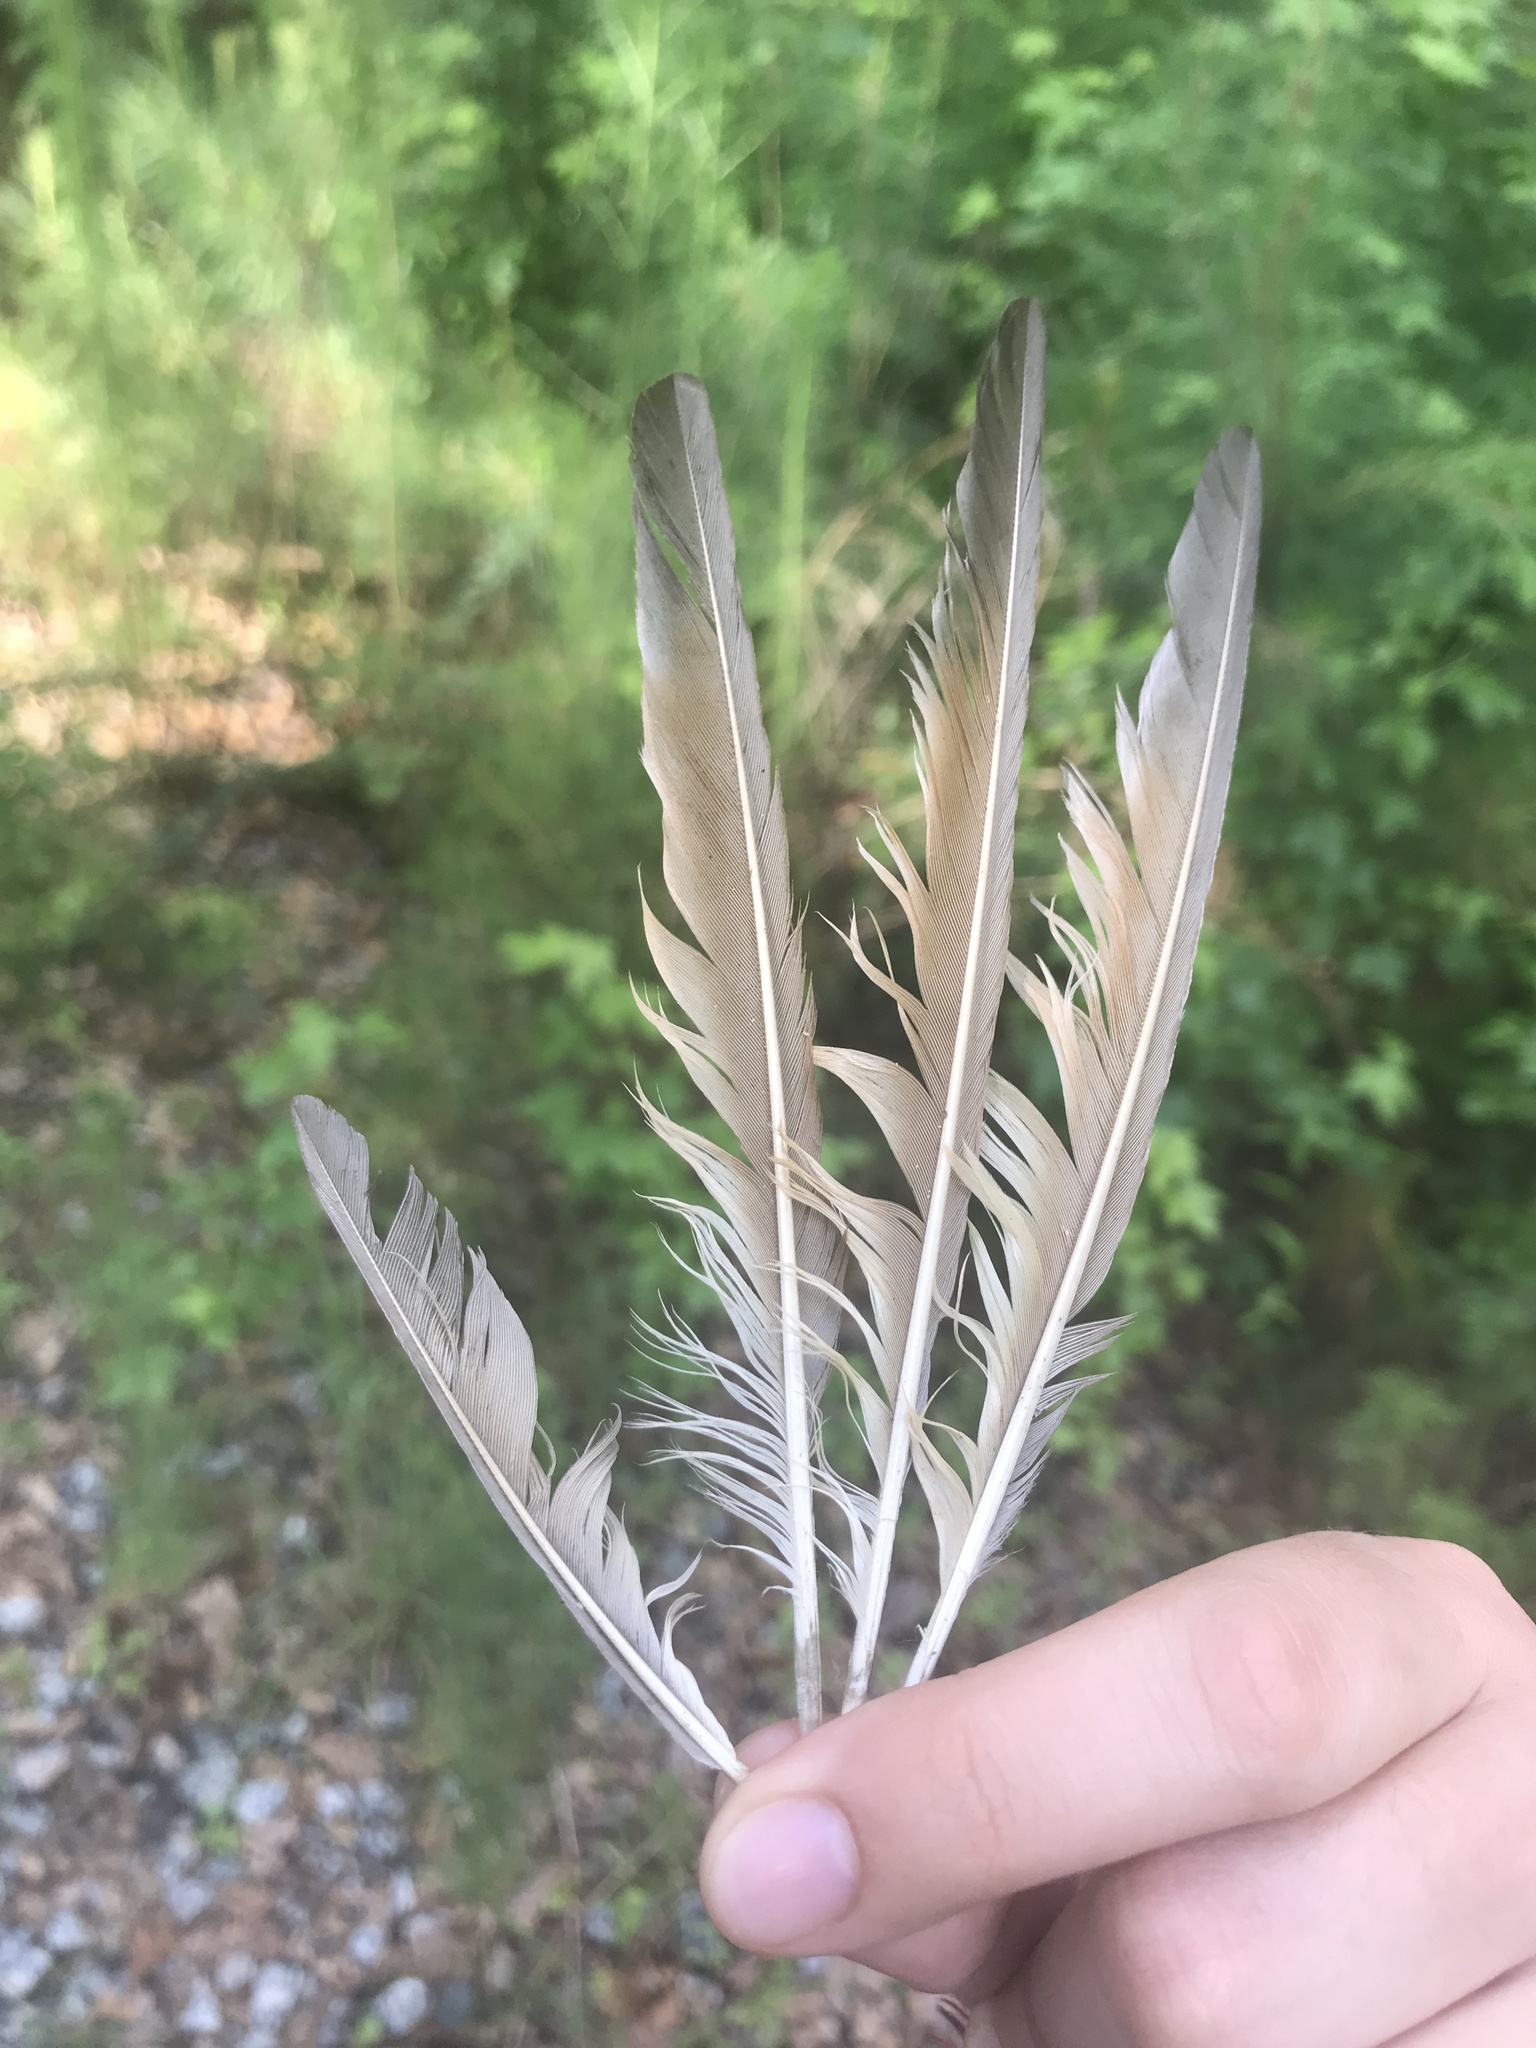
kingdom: Animalia
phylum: Chordata
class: Aves
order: Cuculiformes
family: Cuculidae
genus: Coccyzus
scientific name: Coccyzus americanus
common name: Yellow-billed cuckoo
